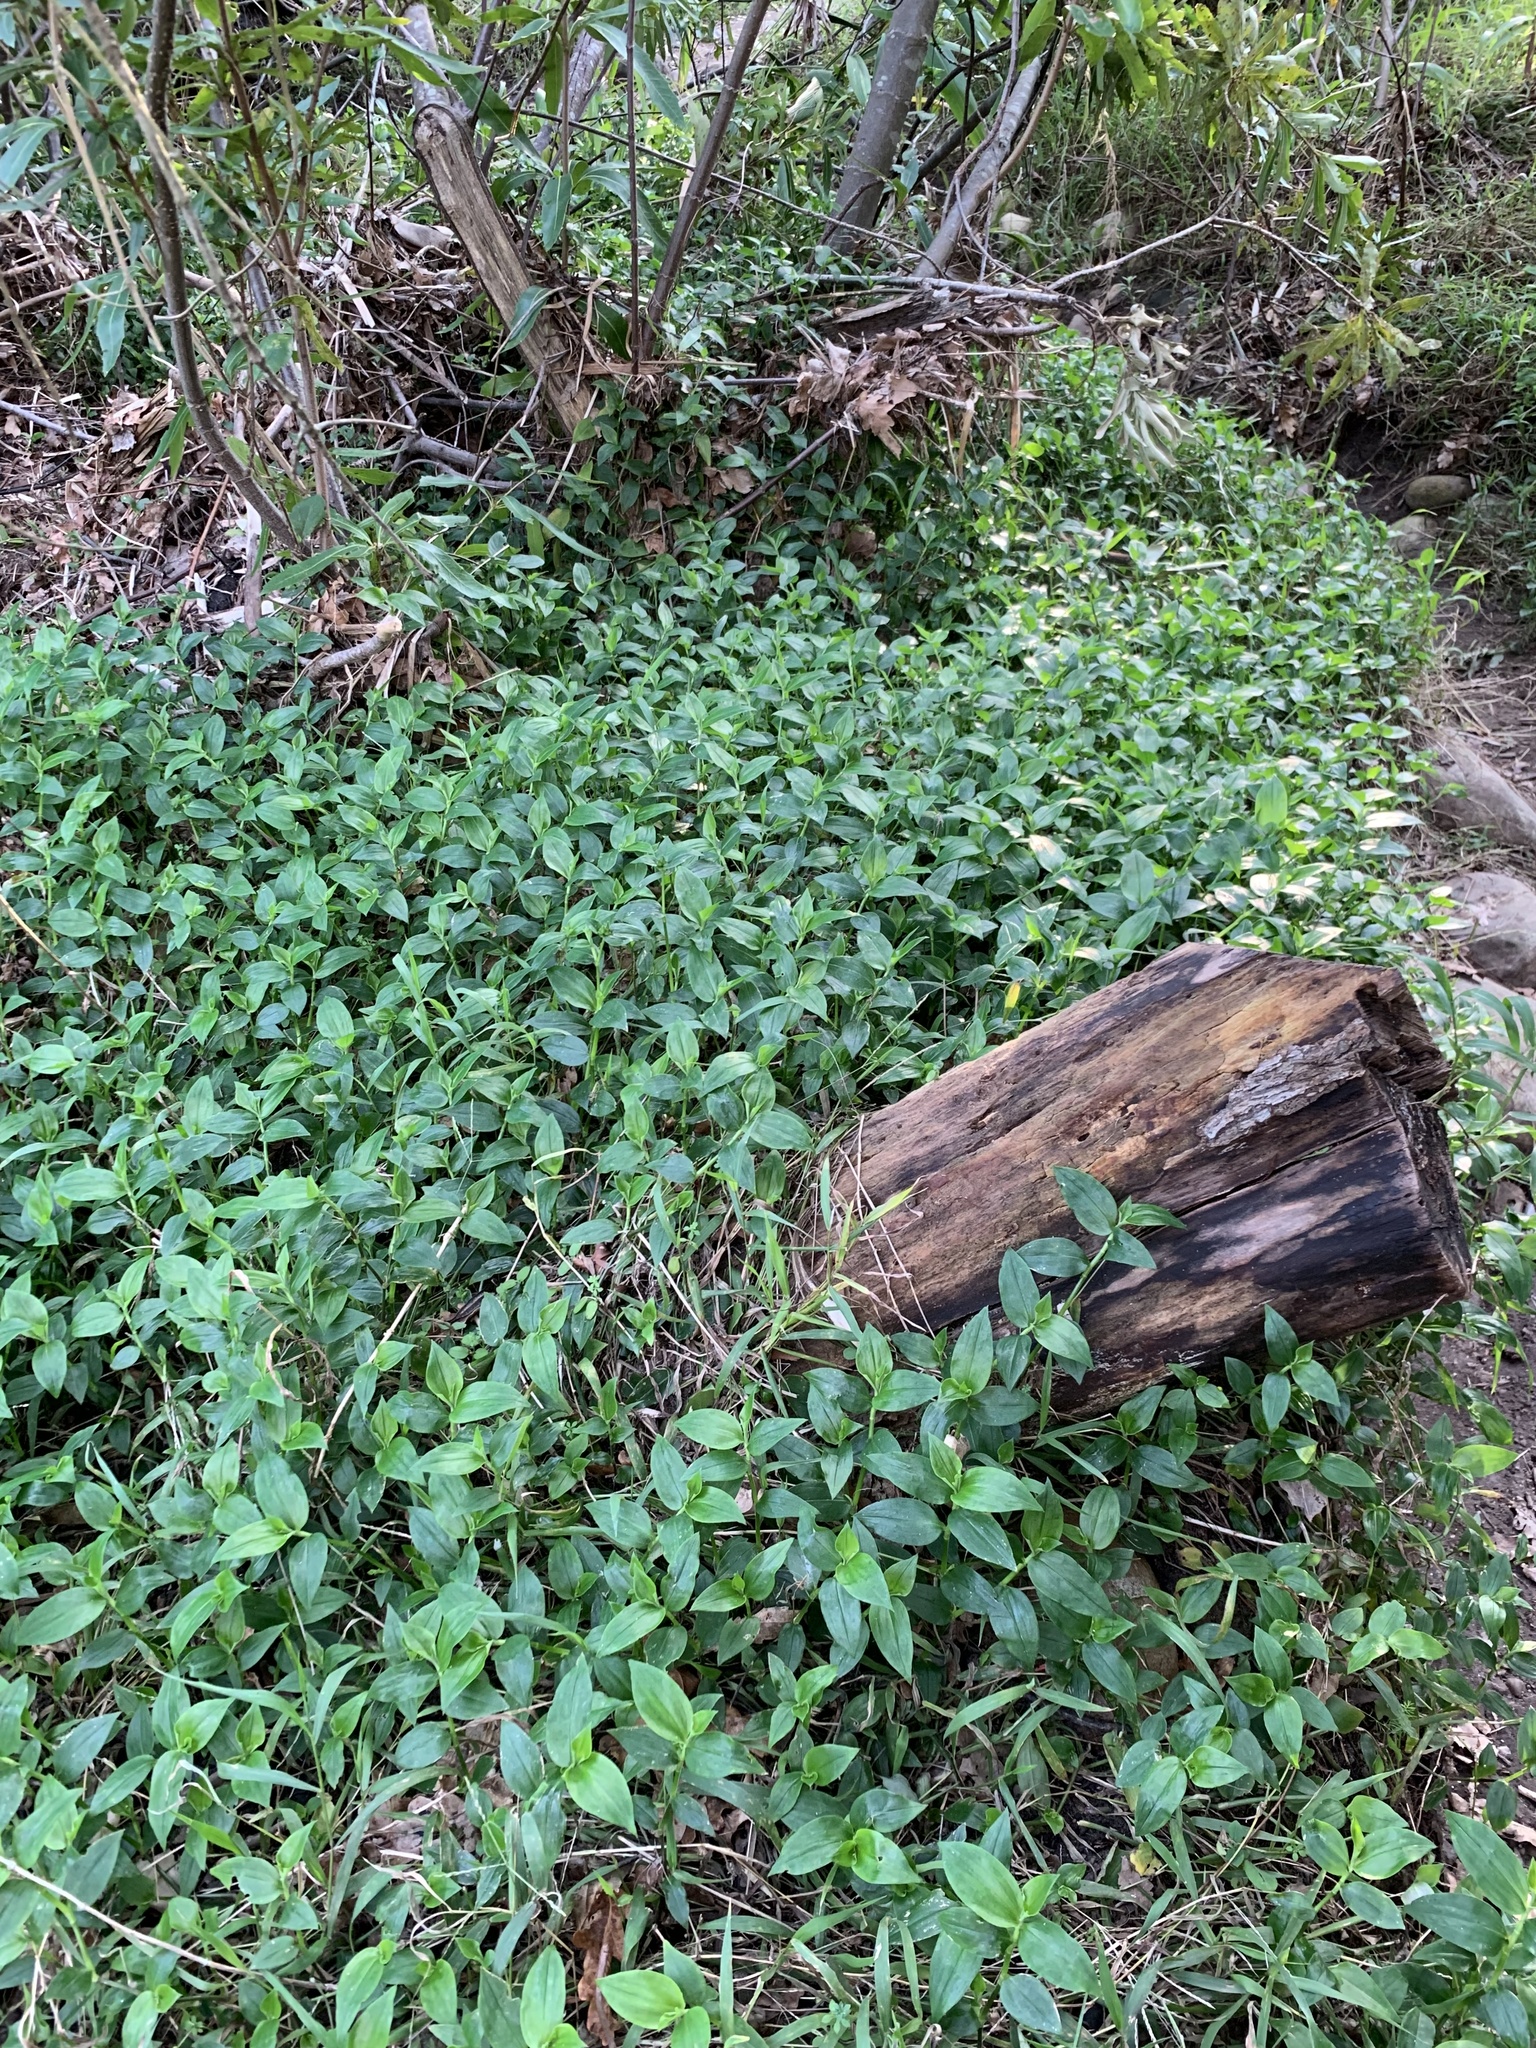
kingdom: Plantae
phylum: Tracheophyta
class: Liliopsida
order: Commelinales
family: Commelinaceae
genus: Tradescantia
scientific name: Tradescantia fluminensis
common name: Wandering-jew
